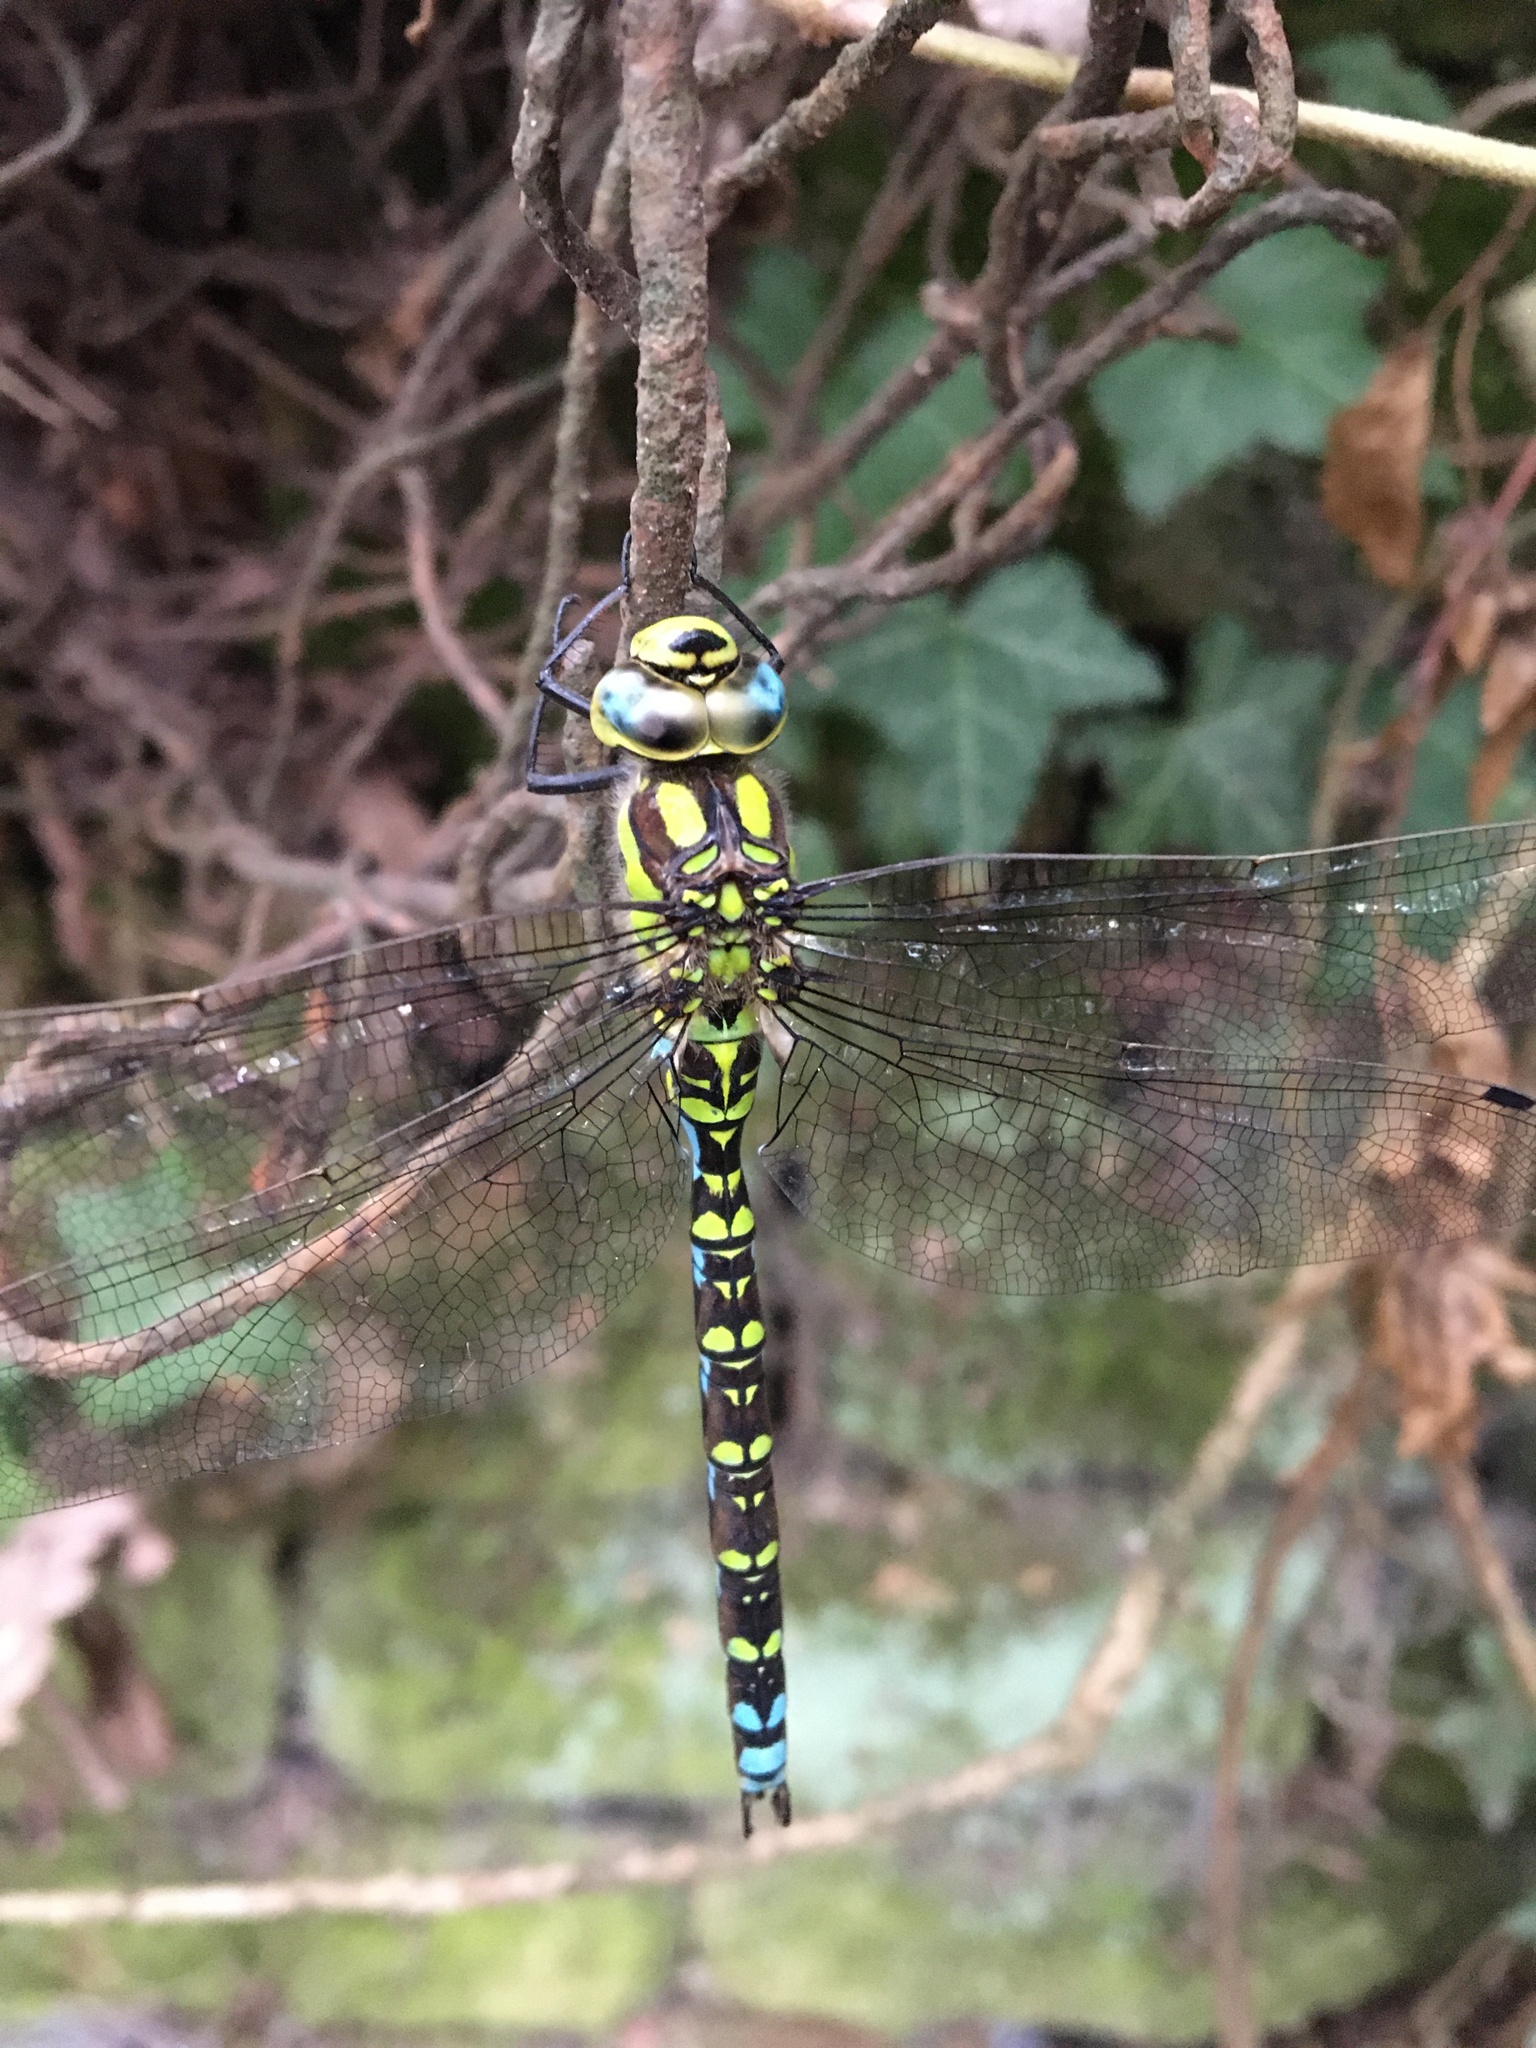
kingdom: Animalia
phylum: Arthropoda
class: Insecta
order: Odonata
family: Aeshnidae
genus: Aeshna
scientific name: Aeshna cyanea
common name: Southern hawker
